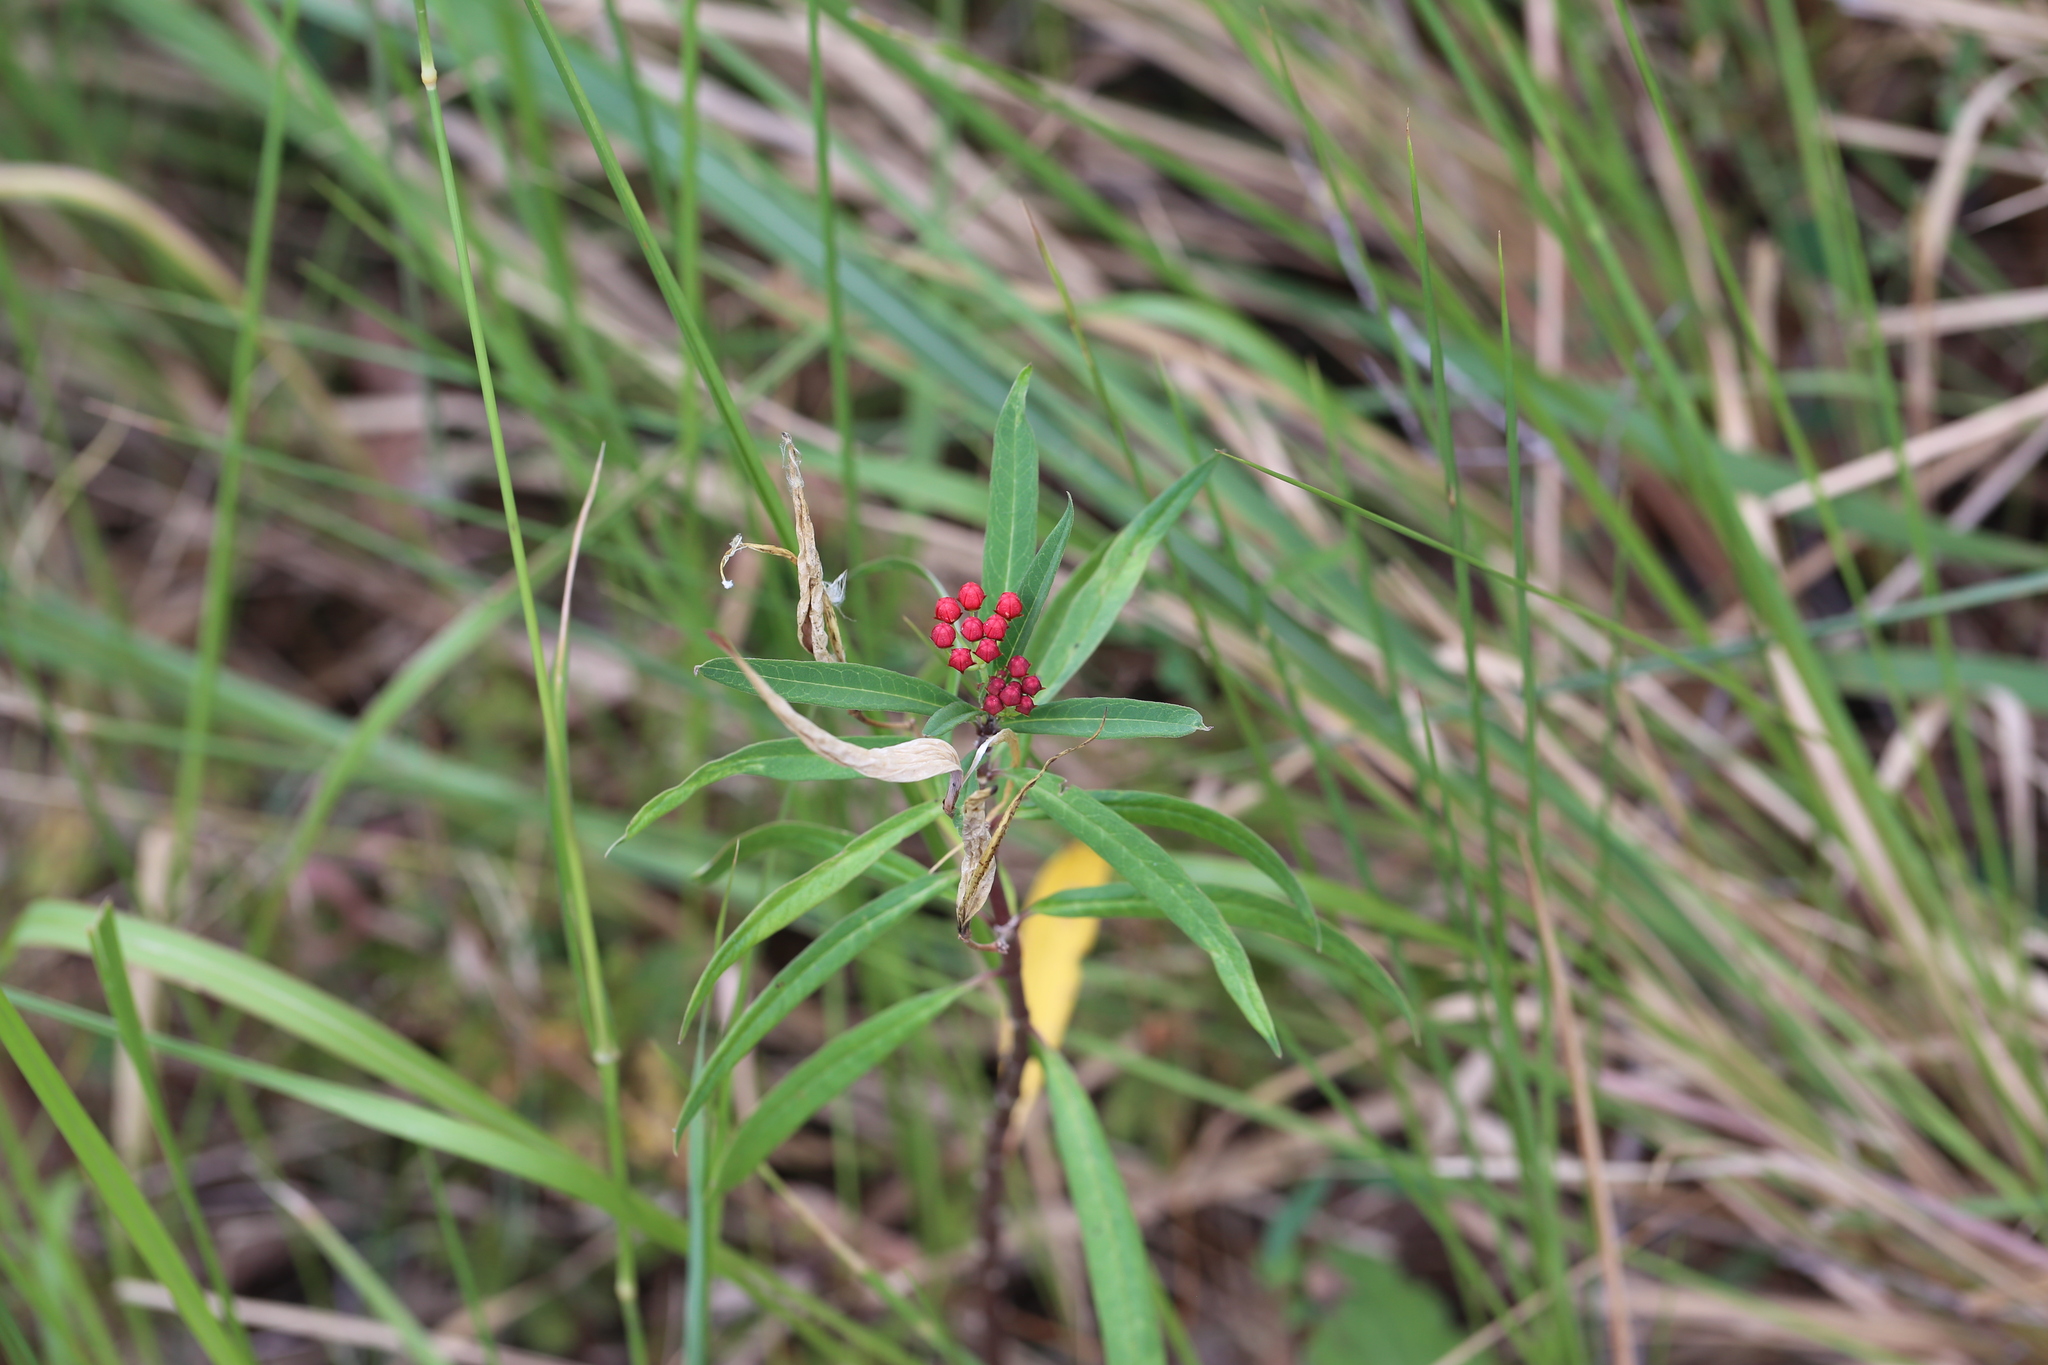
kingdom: Plantae
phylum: Tracheophyta
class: Magnoliopsida
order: Gentianales
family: Apocynaceae
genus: Asclepias
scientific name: Asclepias curassavica
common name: Bloodflower
